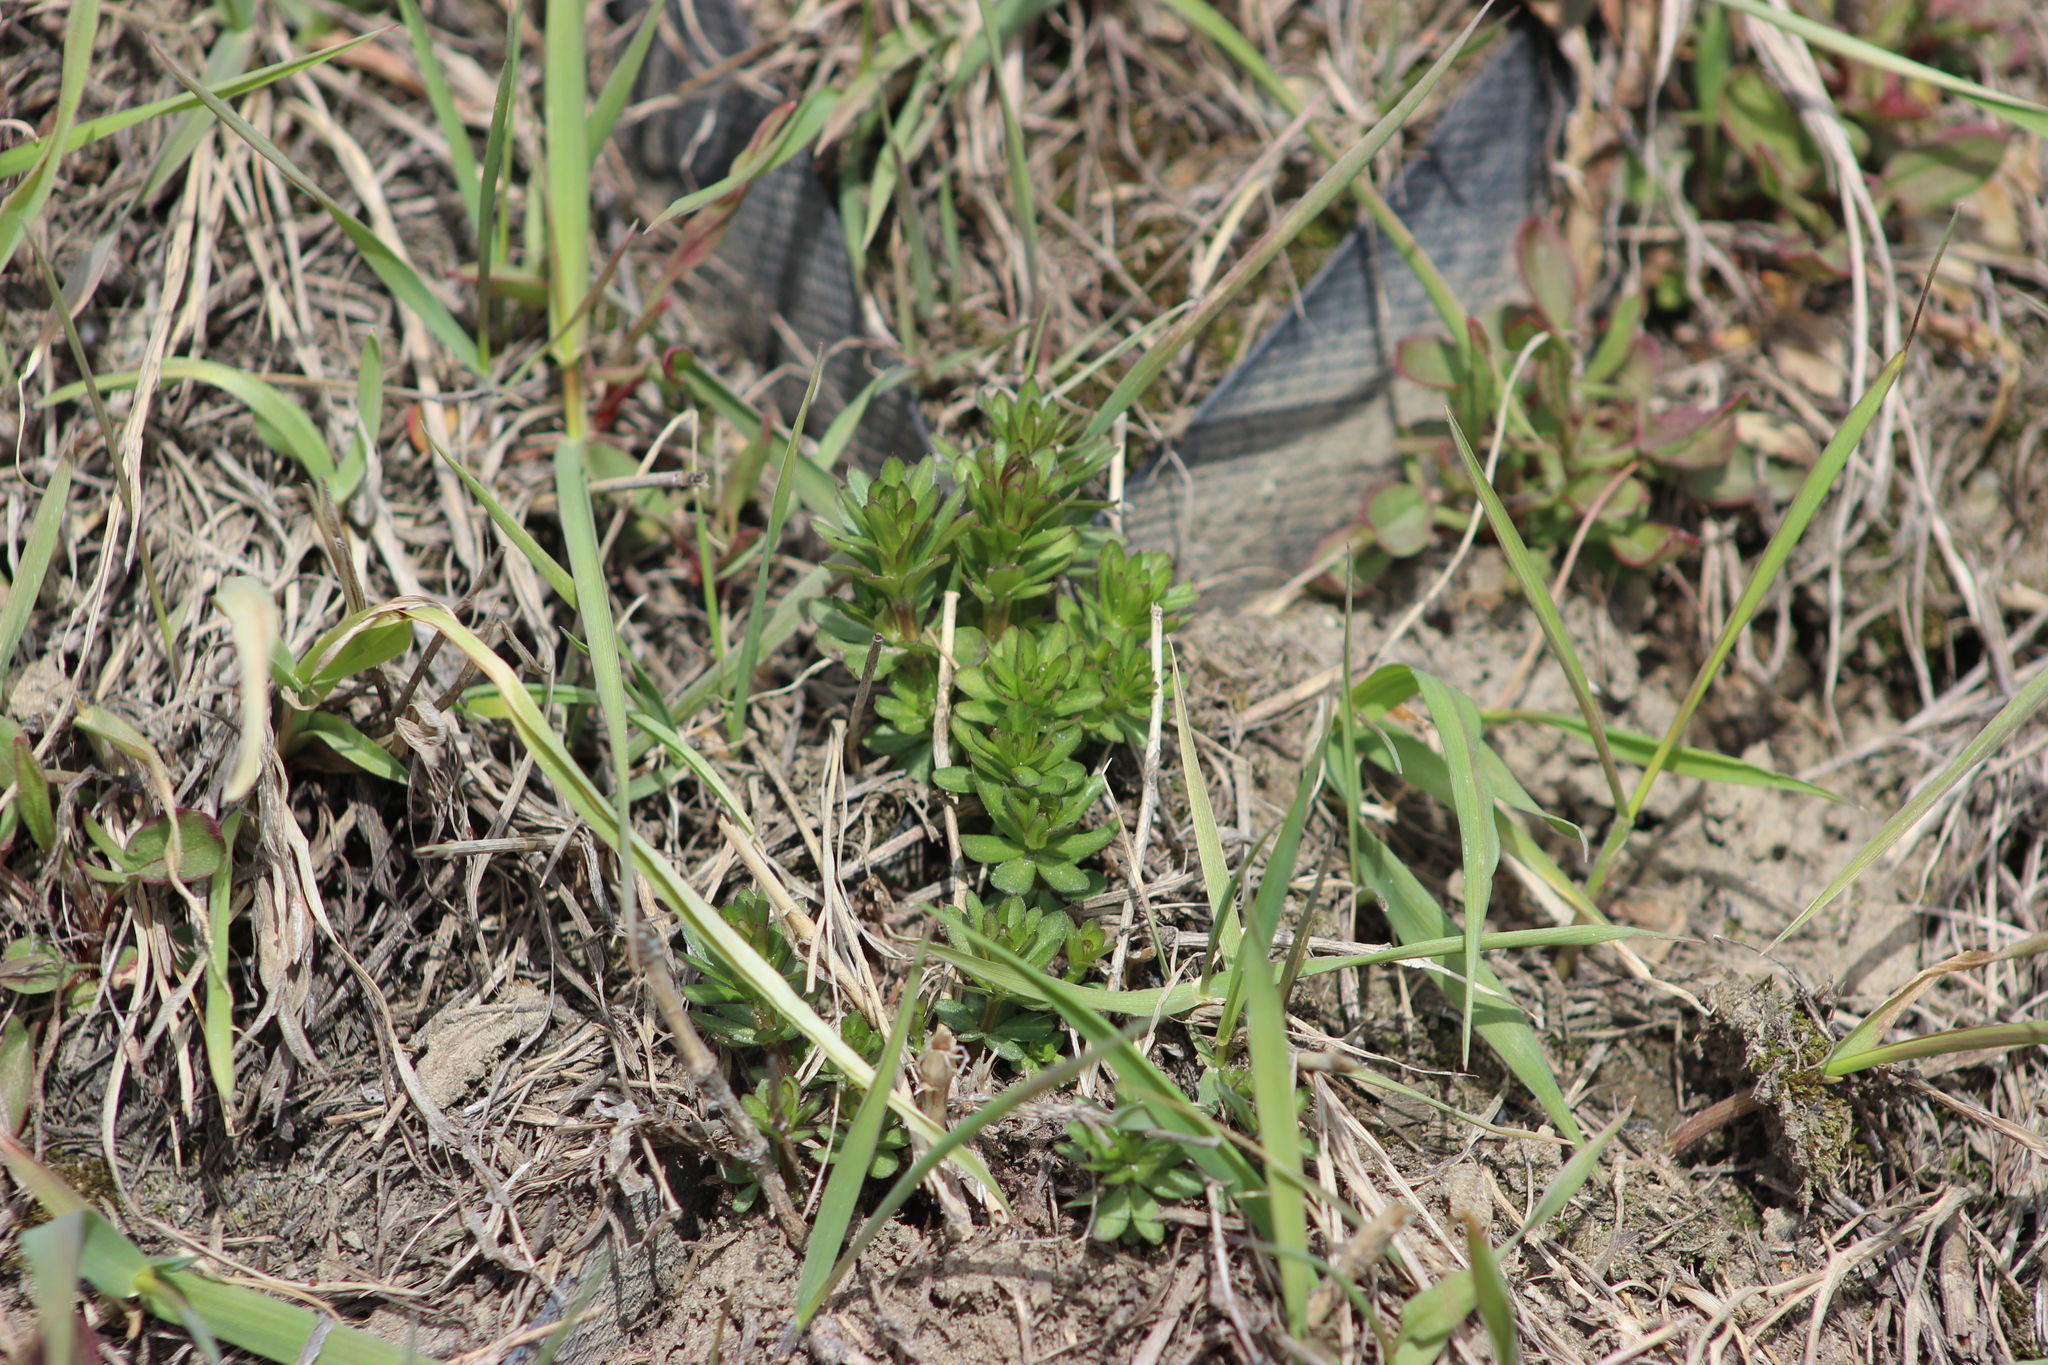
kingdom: Plantae
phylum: Tracheophyta
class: Magnoliopsida
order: Gentianales
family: Rubiaceae
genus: Galium
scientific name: Galium mollugo
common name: Hedge bedstraw
